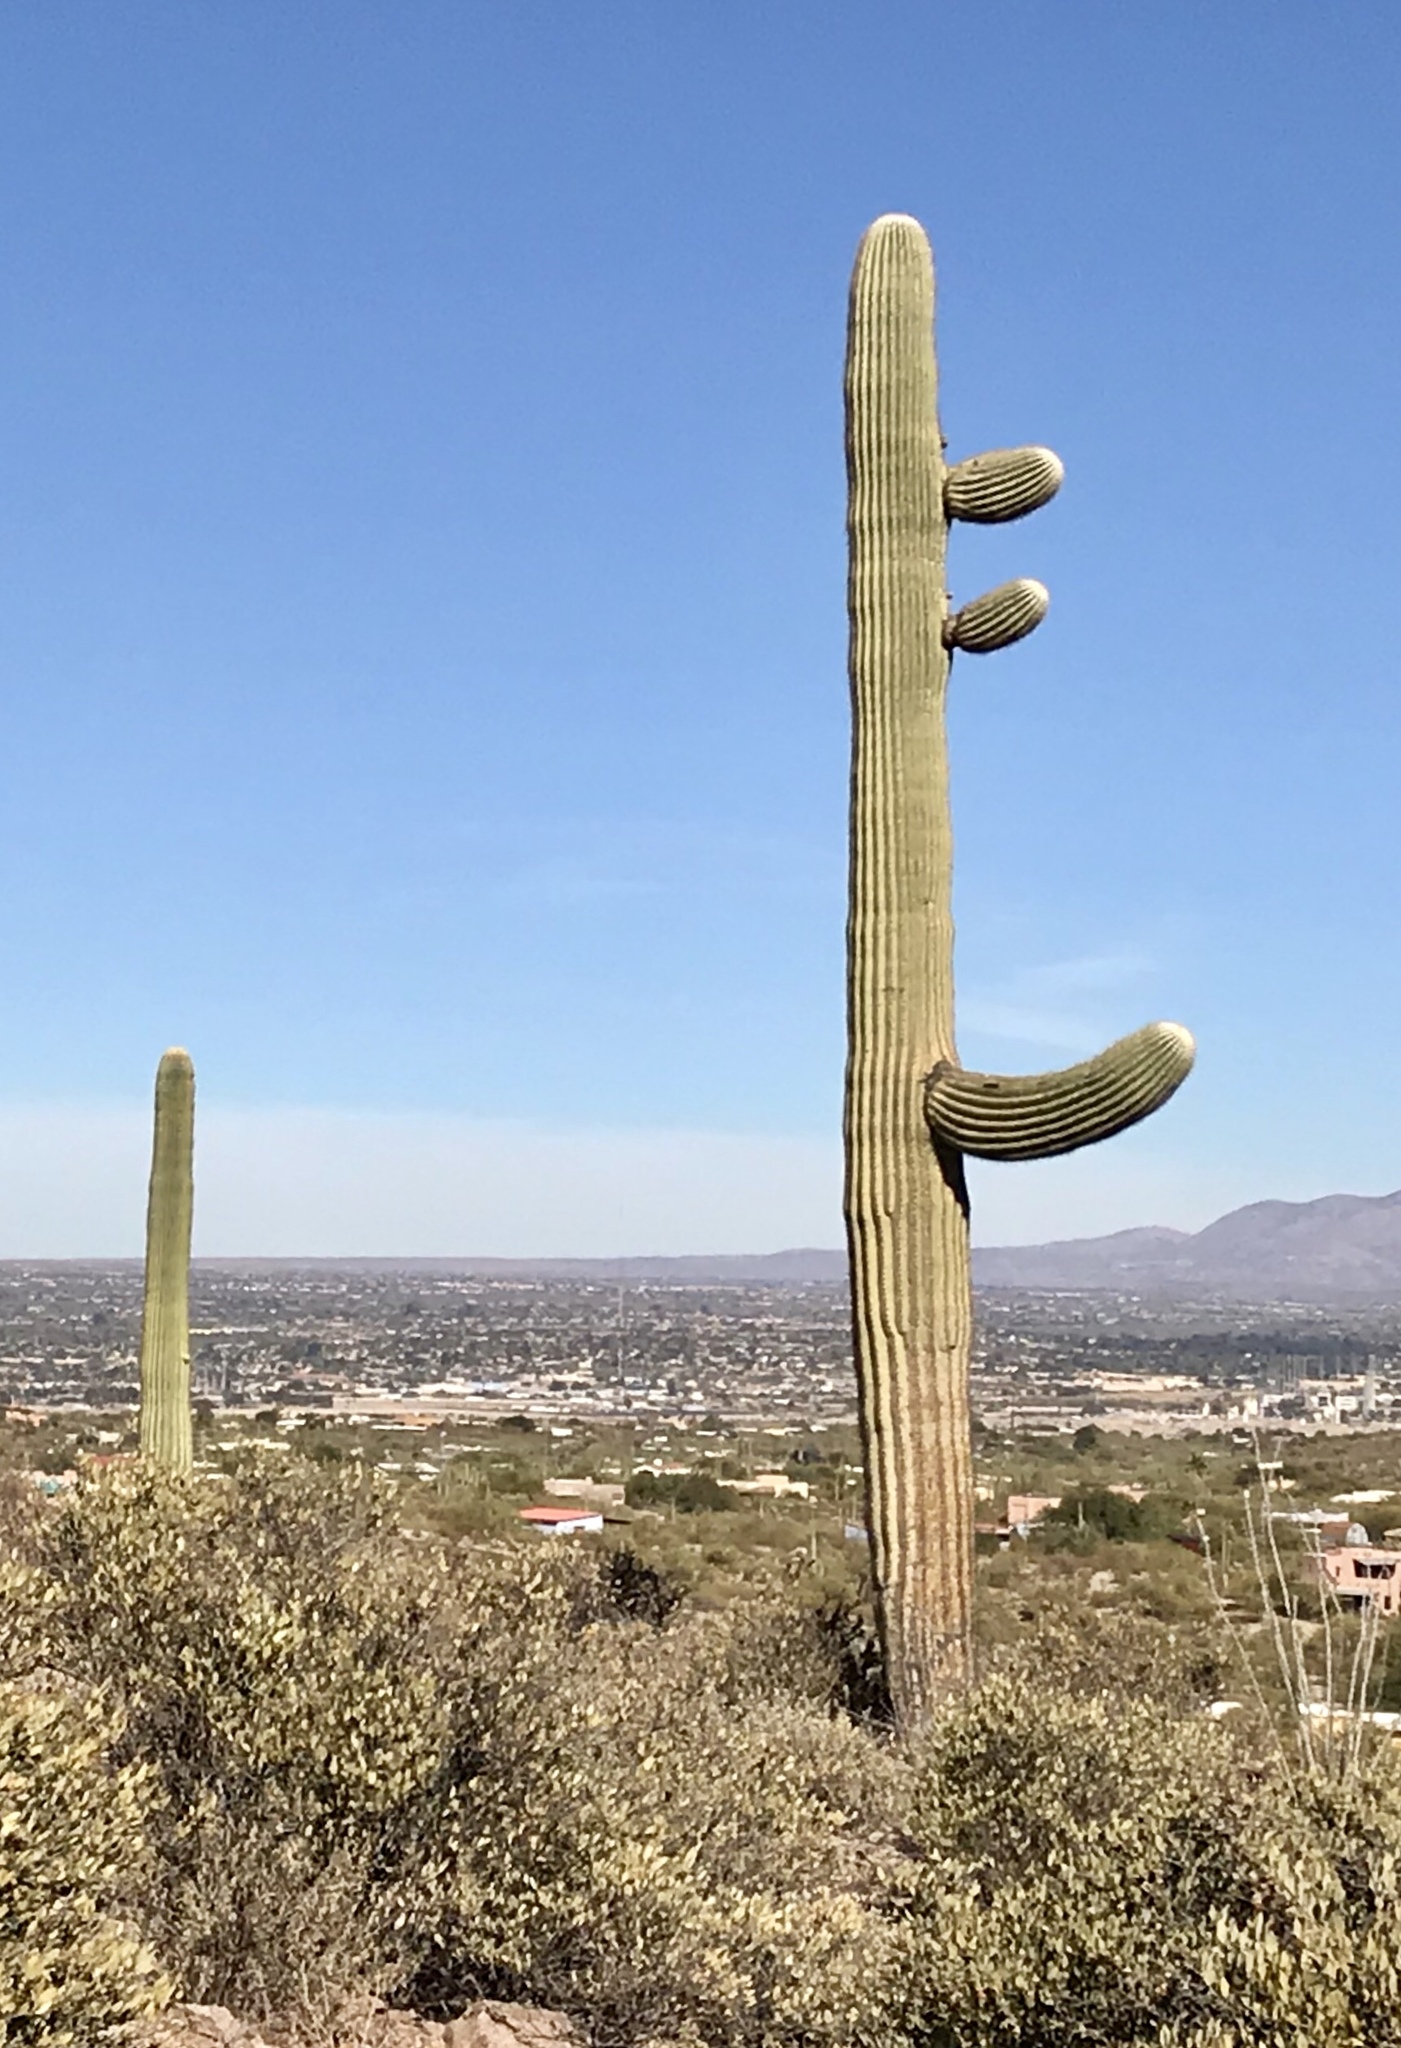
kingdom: Plantae
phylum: Tracheophyta
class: Magnoliopsida
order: Caryophyllales
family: Cactaceae
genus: Carnegiea
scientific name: Carnegiea gigantea
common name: Saguaro
